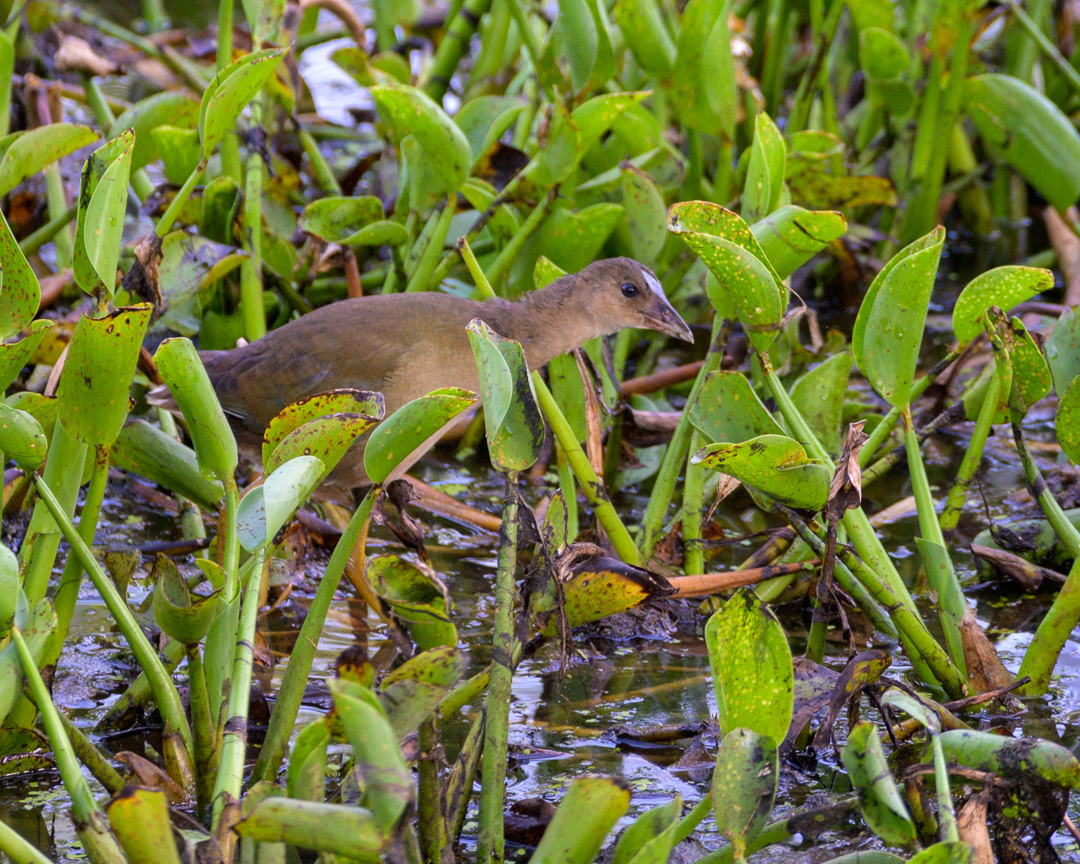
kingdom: Animalia
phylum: Chordata
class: Aves
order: Gruiformes
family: Rallidae
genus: Porphyrio
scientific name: Porphyrio martinica
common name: Purple gallinule
